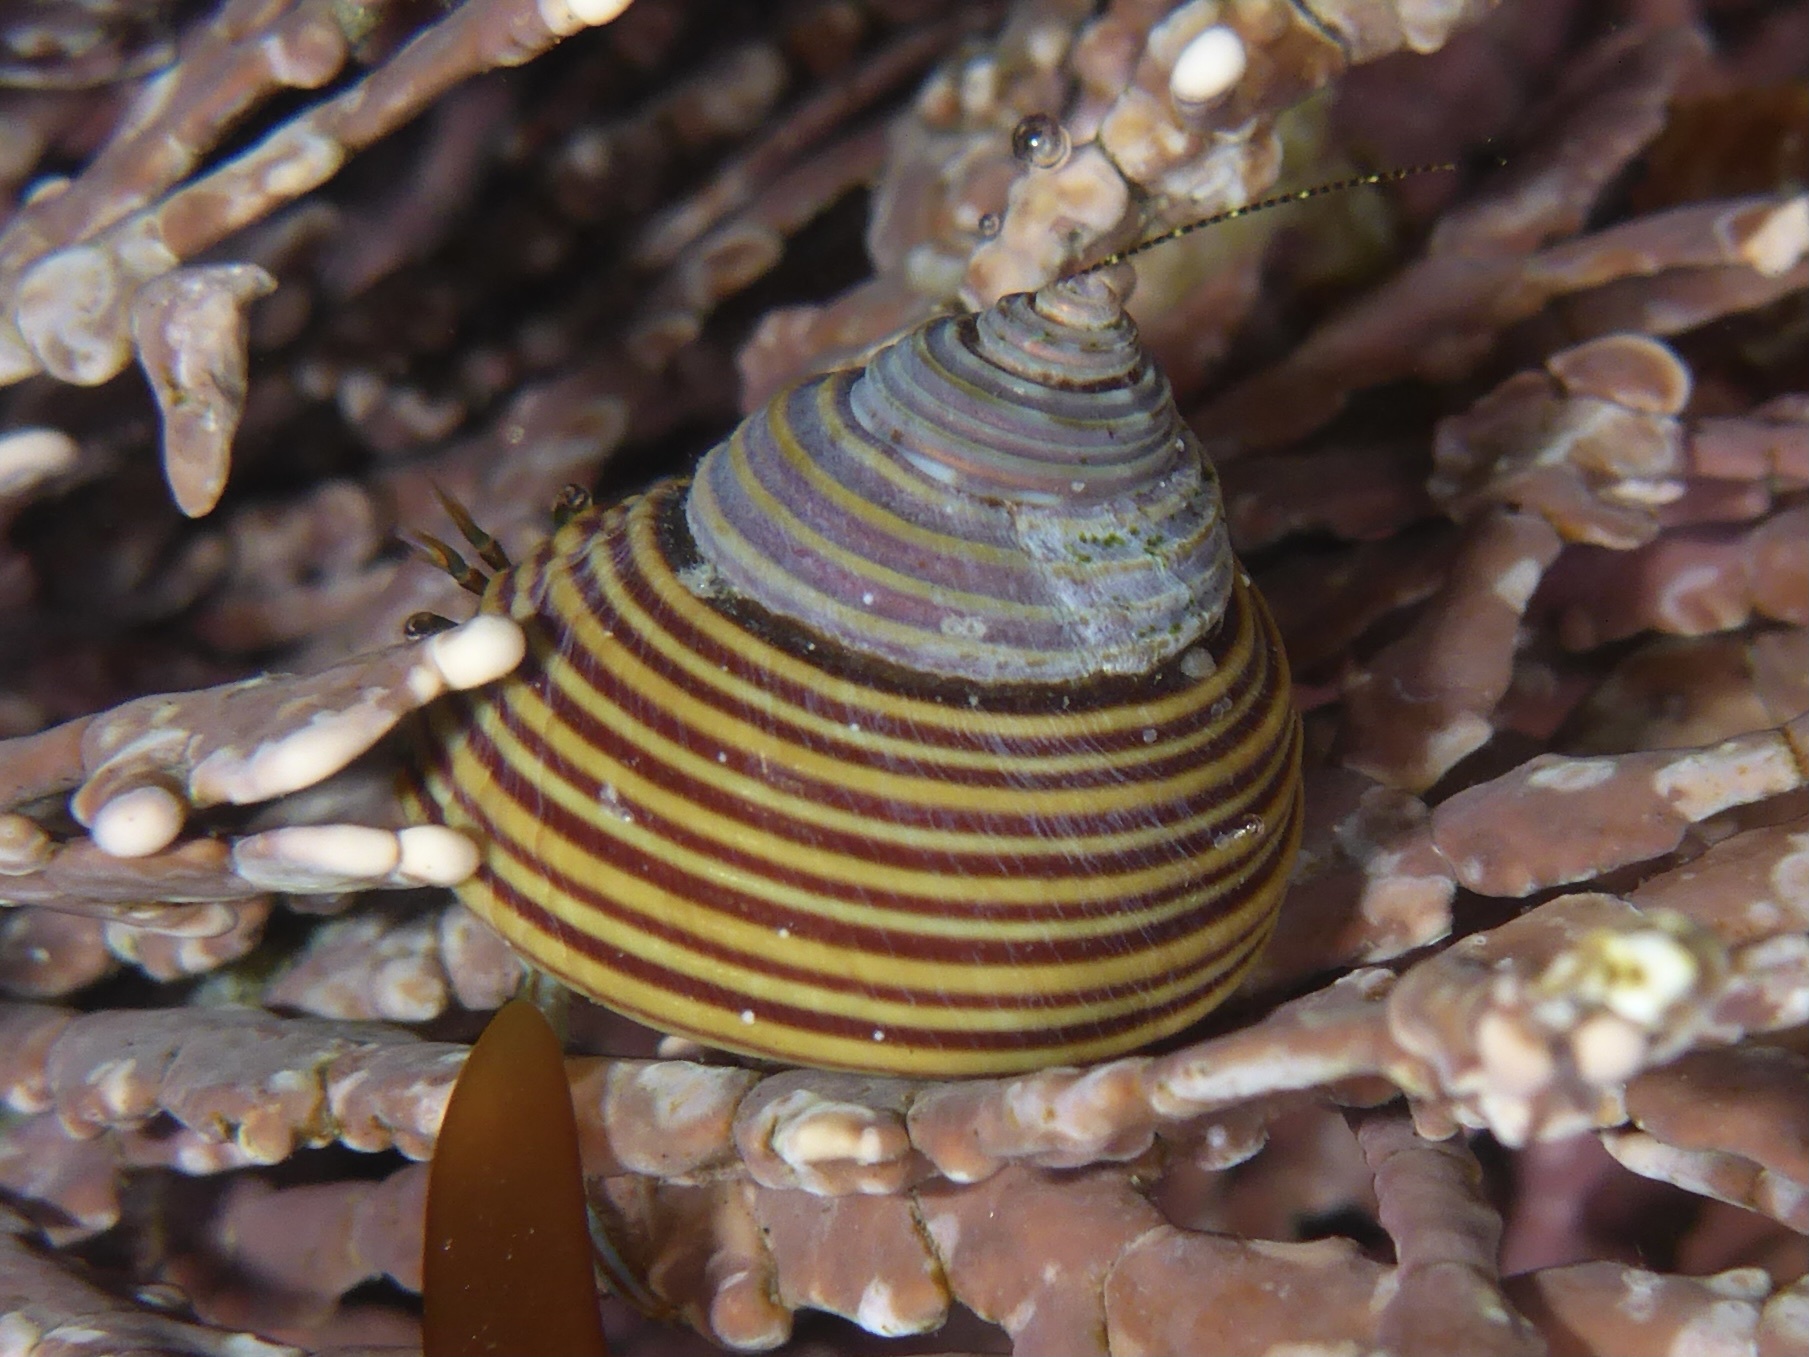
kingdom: Animalia
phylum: Mollusca
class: Gastropoda
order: Trochida
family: Calliostomatidae
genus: Calliostoma
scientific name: Calliostoma ligatum
